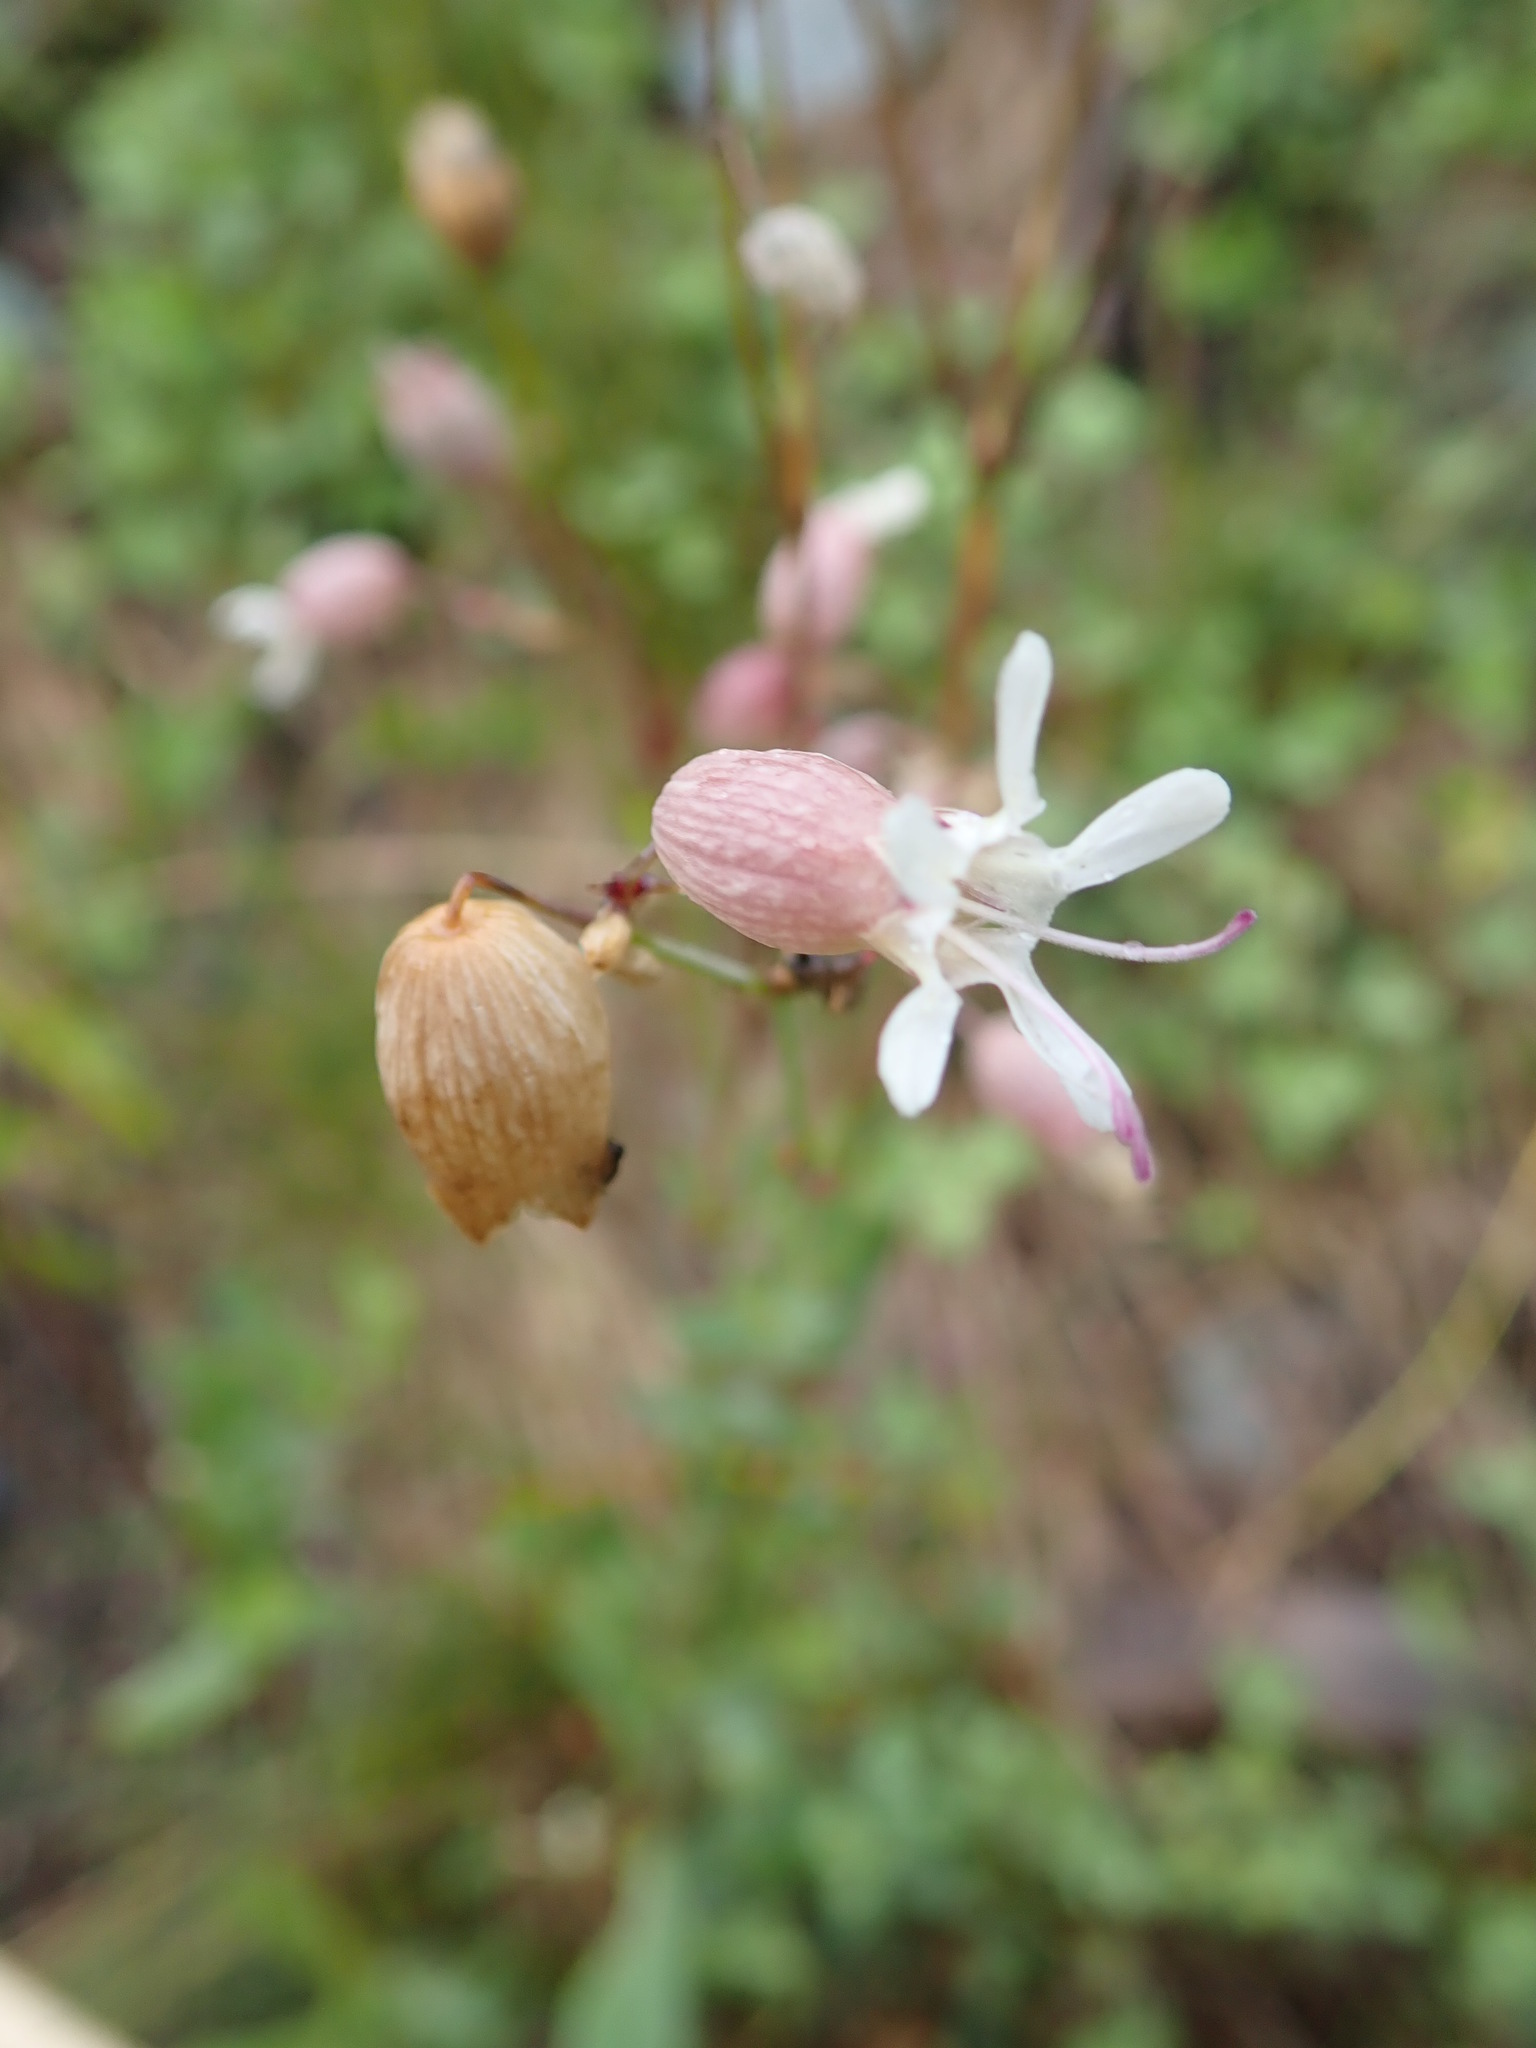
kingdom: Plantae
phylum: Tracheophyta
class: Magnoliopsida
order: Caryophyllales
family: Caryophyllaceae
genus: Silene
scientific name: Silene vulgaris
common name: Bladder campion
